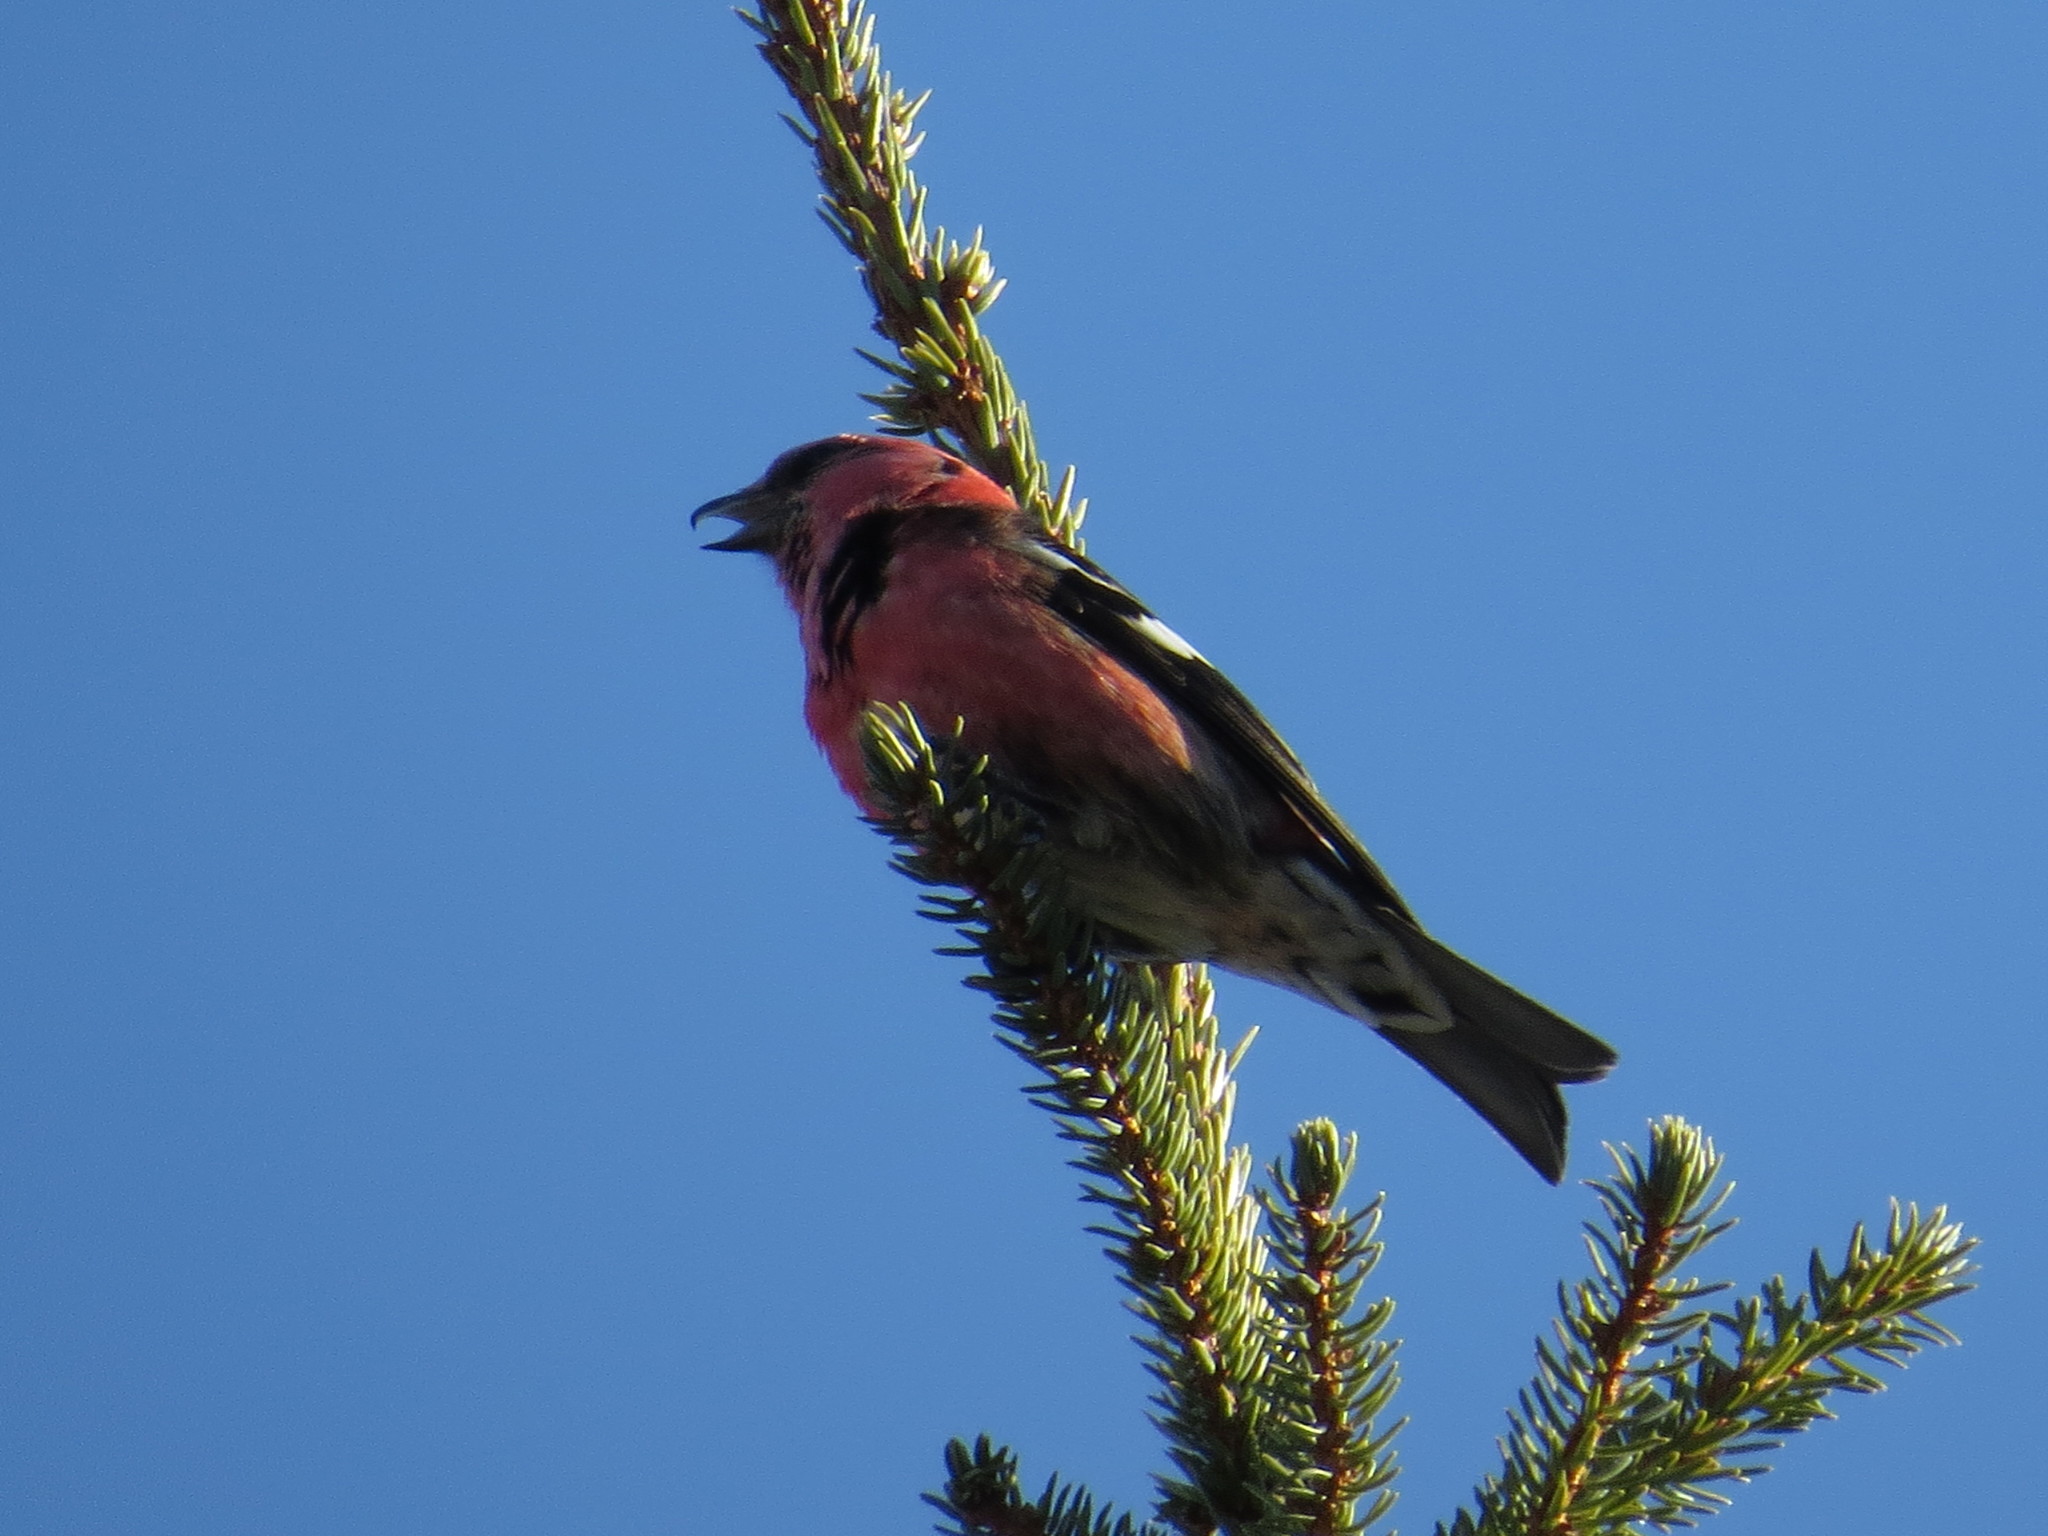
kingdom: Animalia
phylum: Chordata
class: Aves
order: Passeriformes
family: Fringillidae
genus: Loxia
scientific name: Loxia leucoptera
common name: Two-barred crossbill
